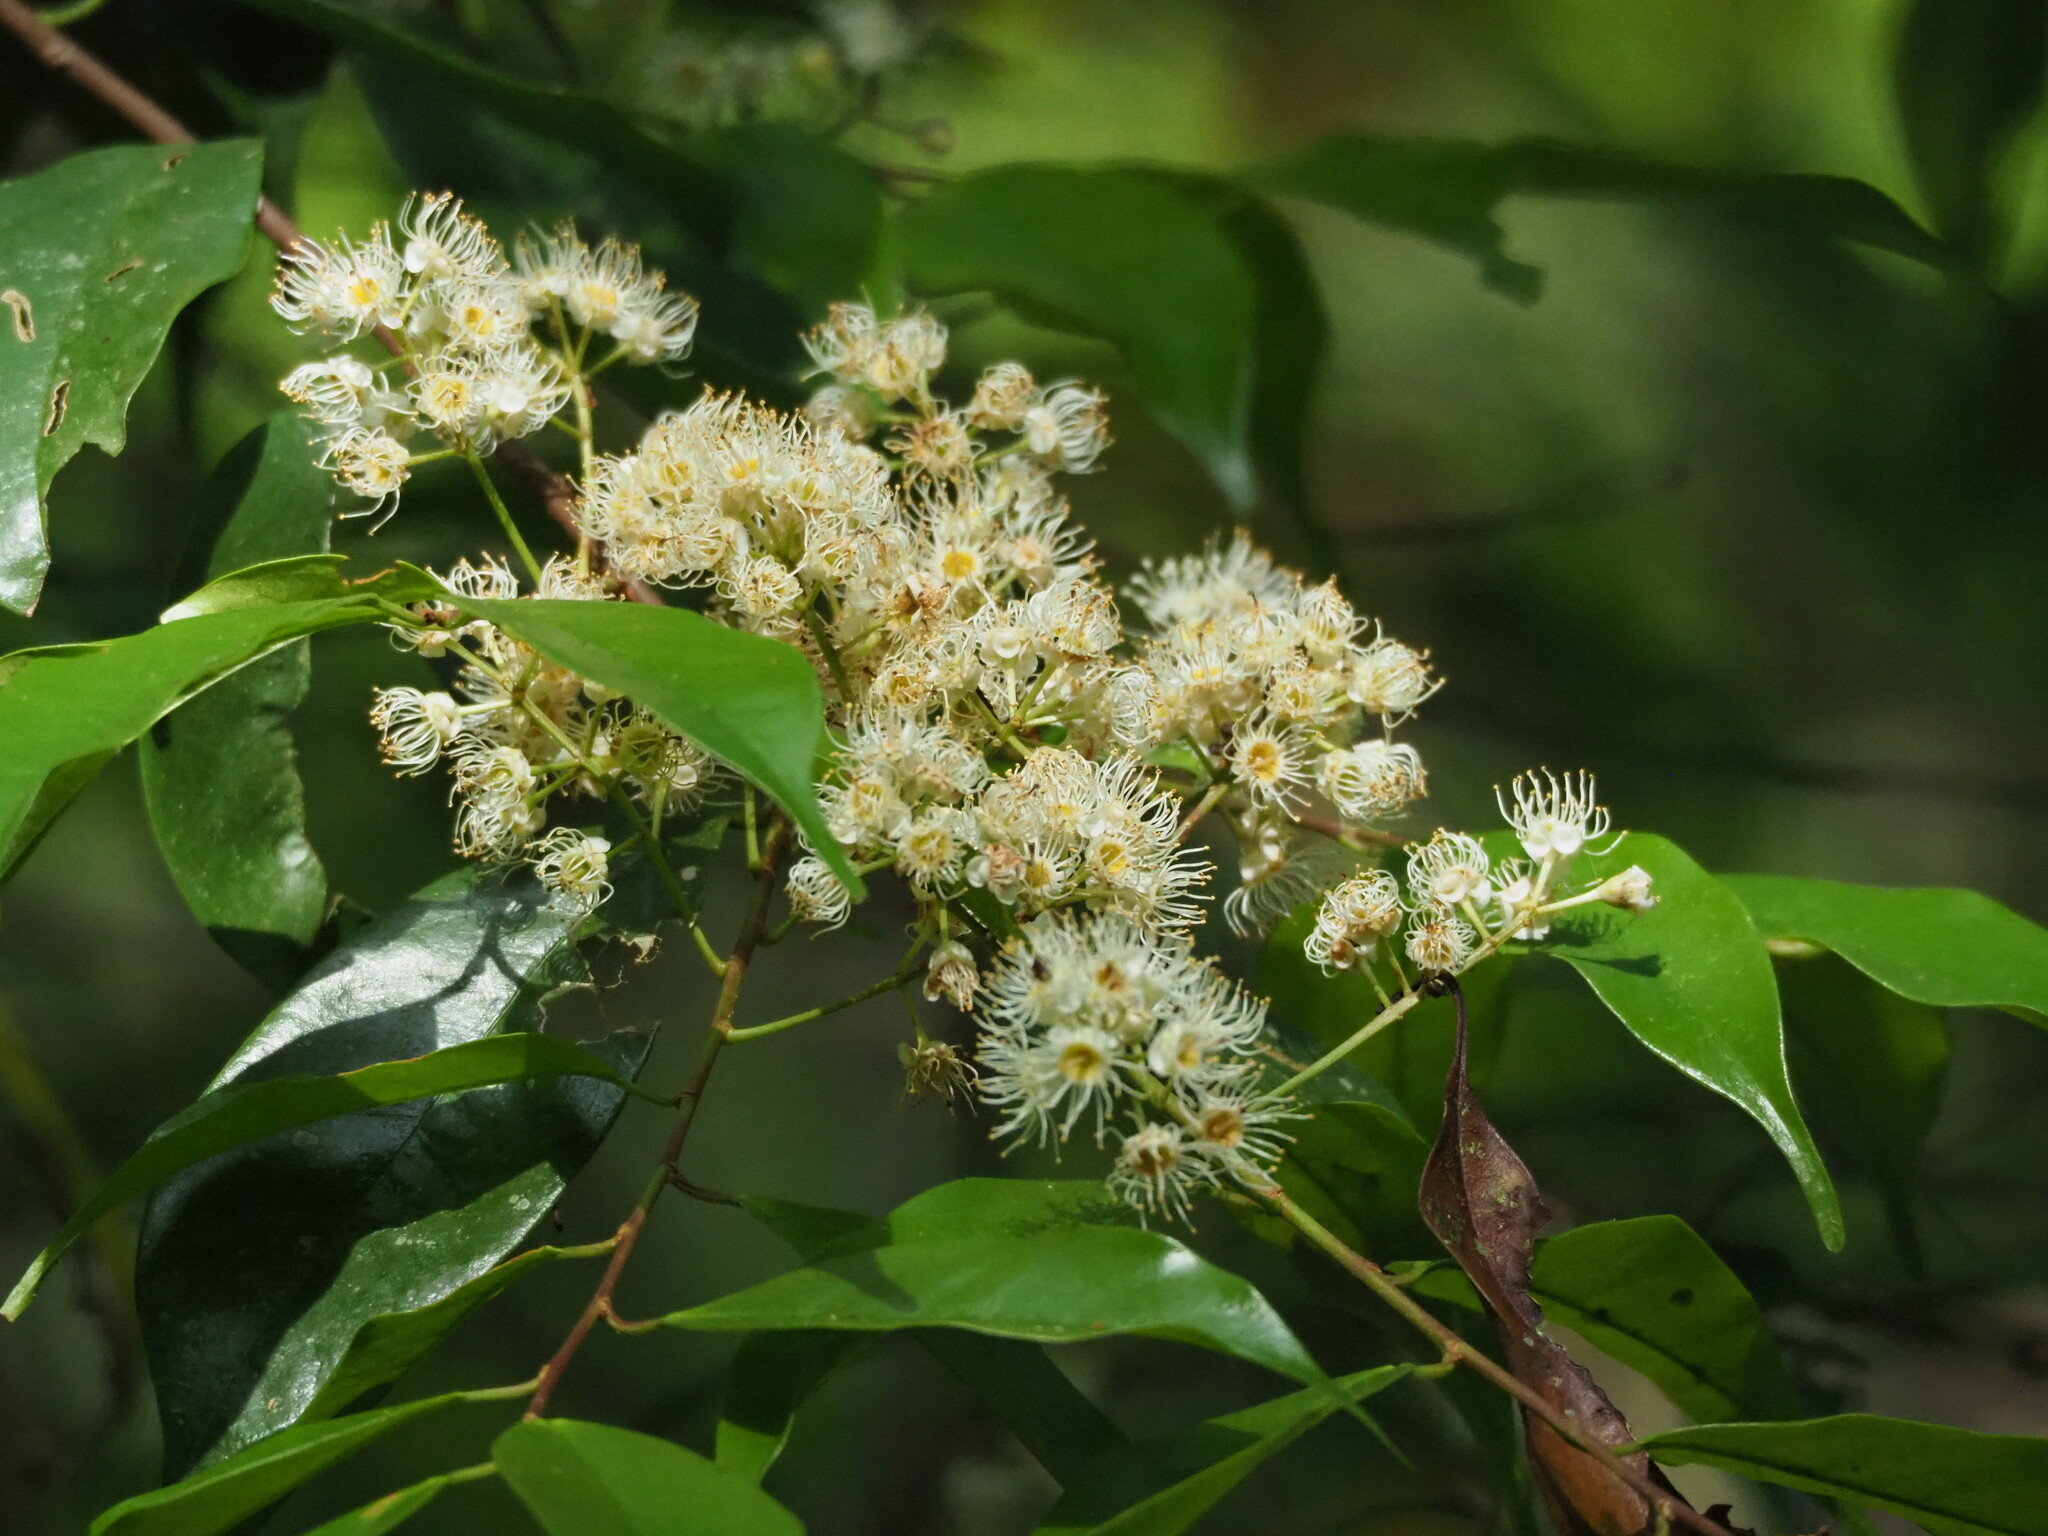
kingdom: Plantae
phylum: Tracheophyta
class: Magnoliopsida
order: Rosales
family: Rosaceae
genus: Prunus
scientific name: Prunus phaeosticta
